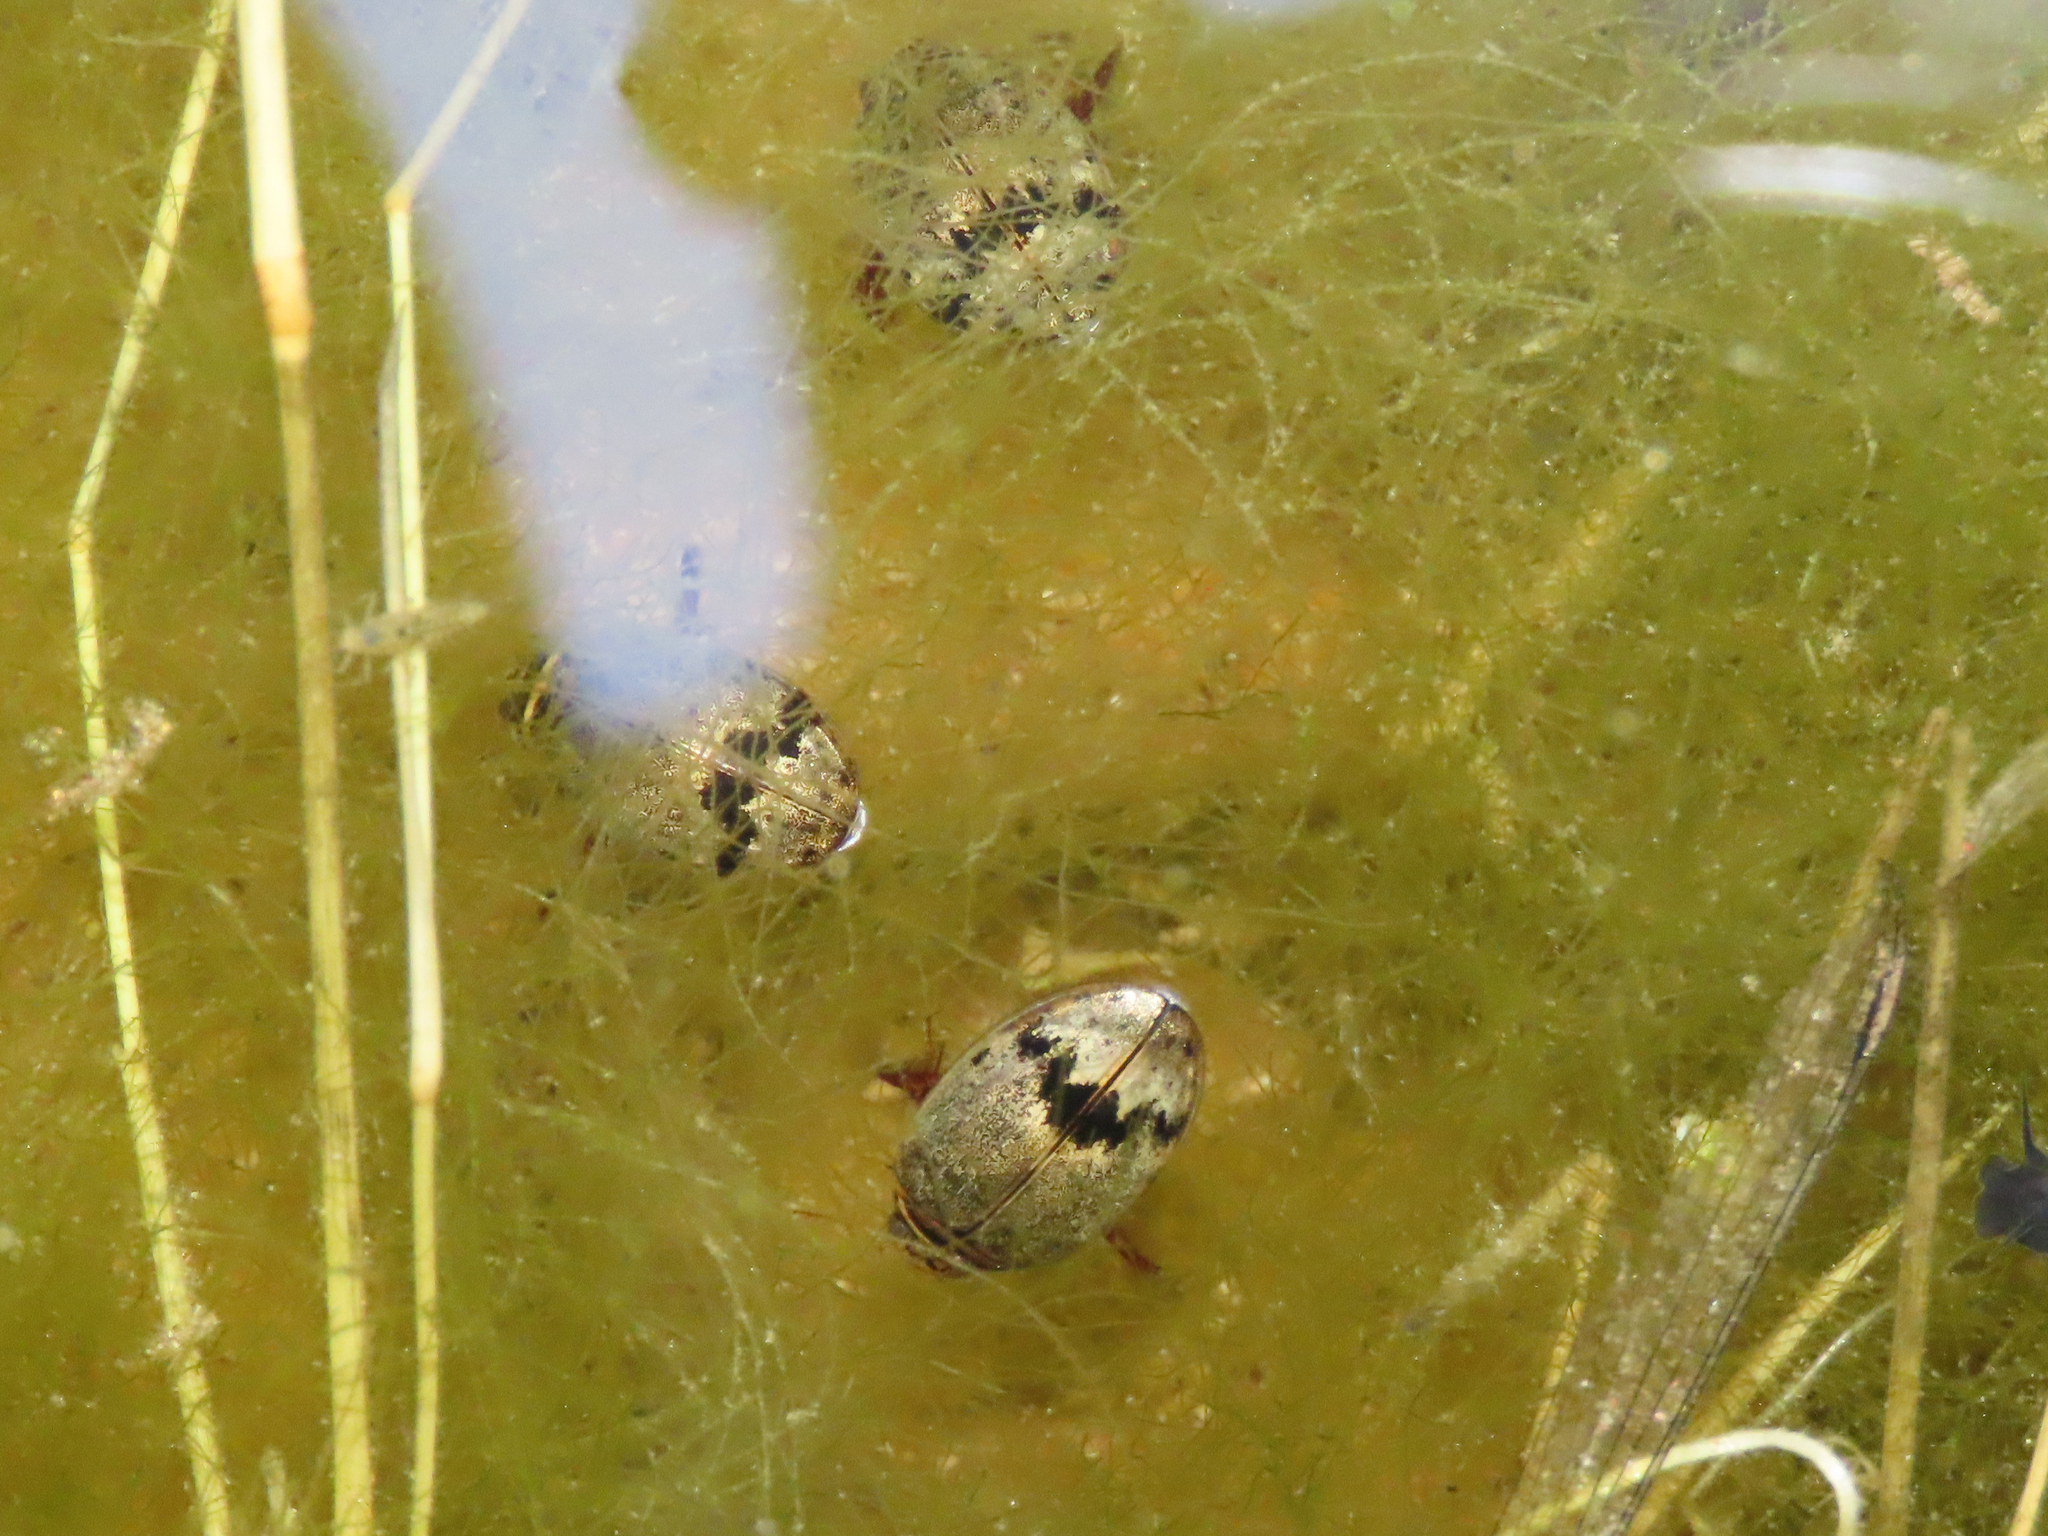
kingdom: Animalia
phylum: Arthropoda
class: Insecta
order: Coleoptera
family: Dytiscidae
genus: Thermonectus
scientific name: Thermonectus nigrofasciatus
